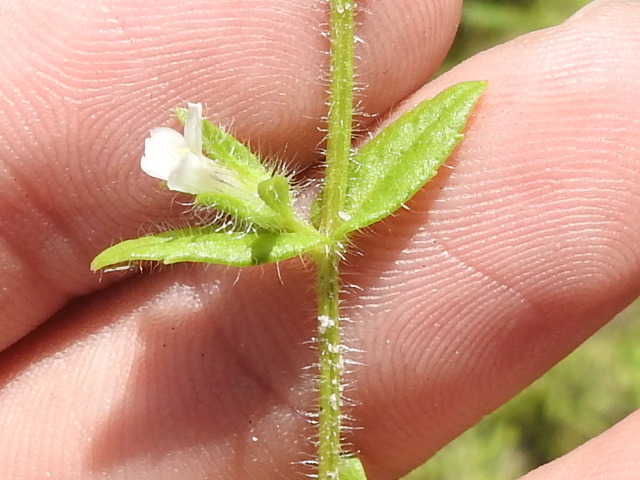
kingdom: Plantae
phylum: Tracheophyta
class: Magnoliopsida
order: Lamiales
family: Plantaginaceae
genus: Gratiola
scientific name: Gratiola pilosa
